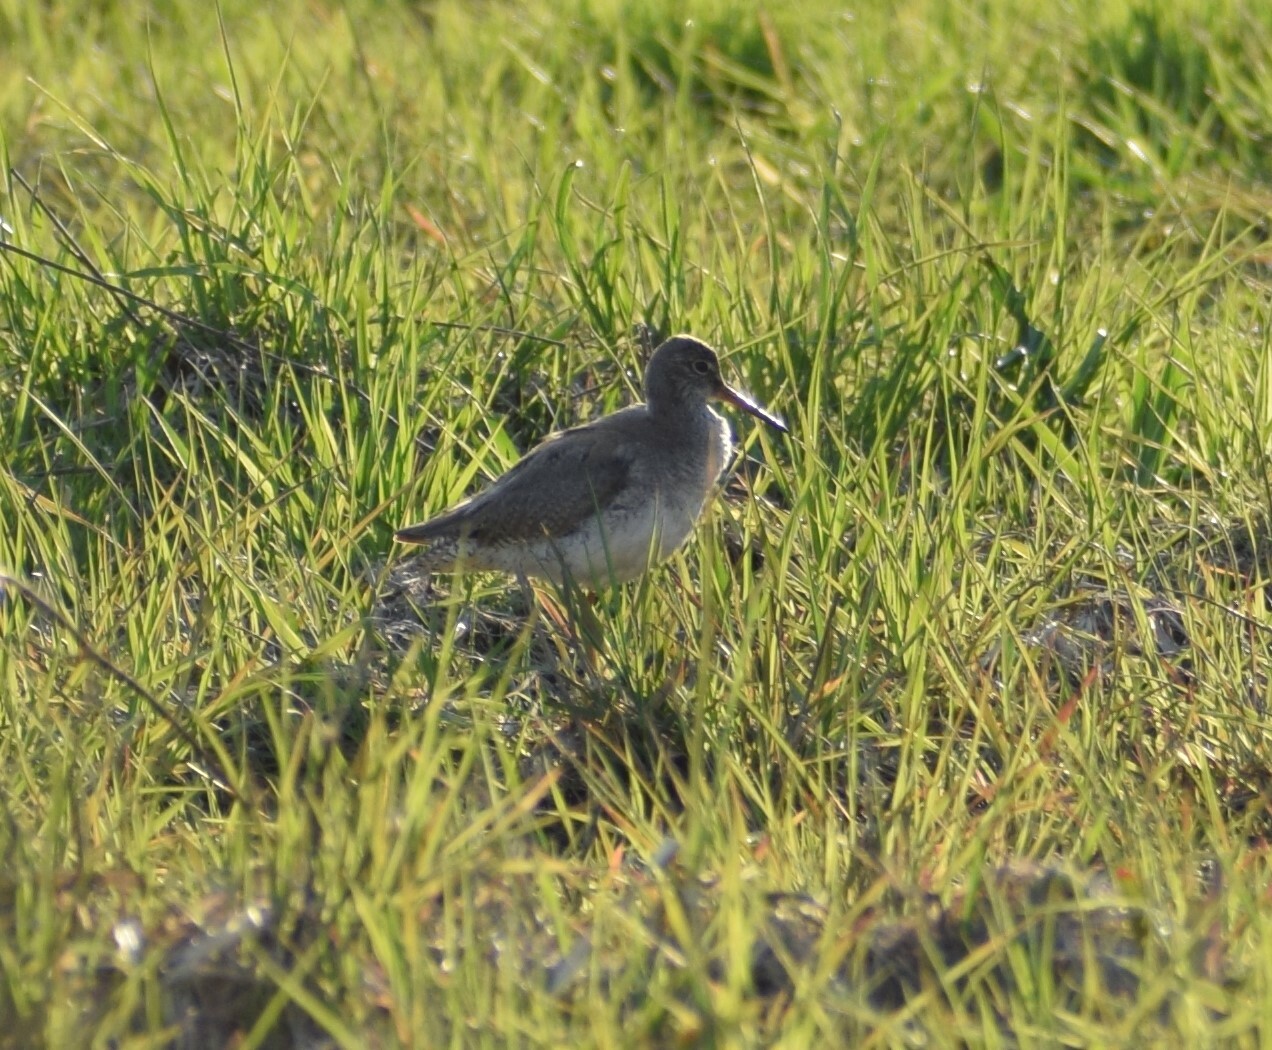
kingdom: Animalia
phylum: Chordata
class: Aves
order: Charadriiformes
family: Scolopacidae
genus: Tringa
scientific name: Tringa totanus
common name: Common redshank
